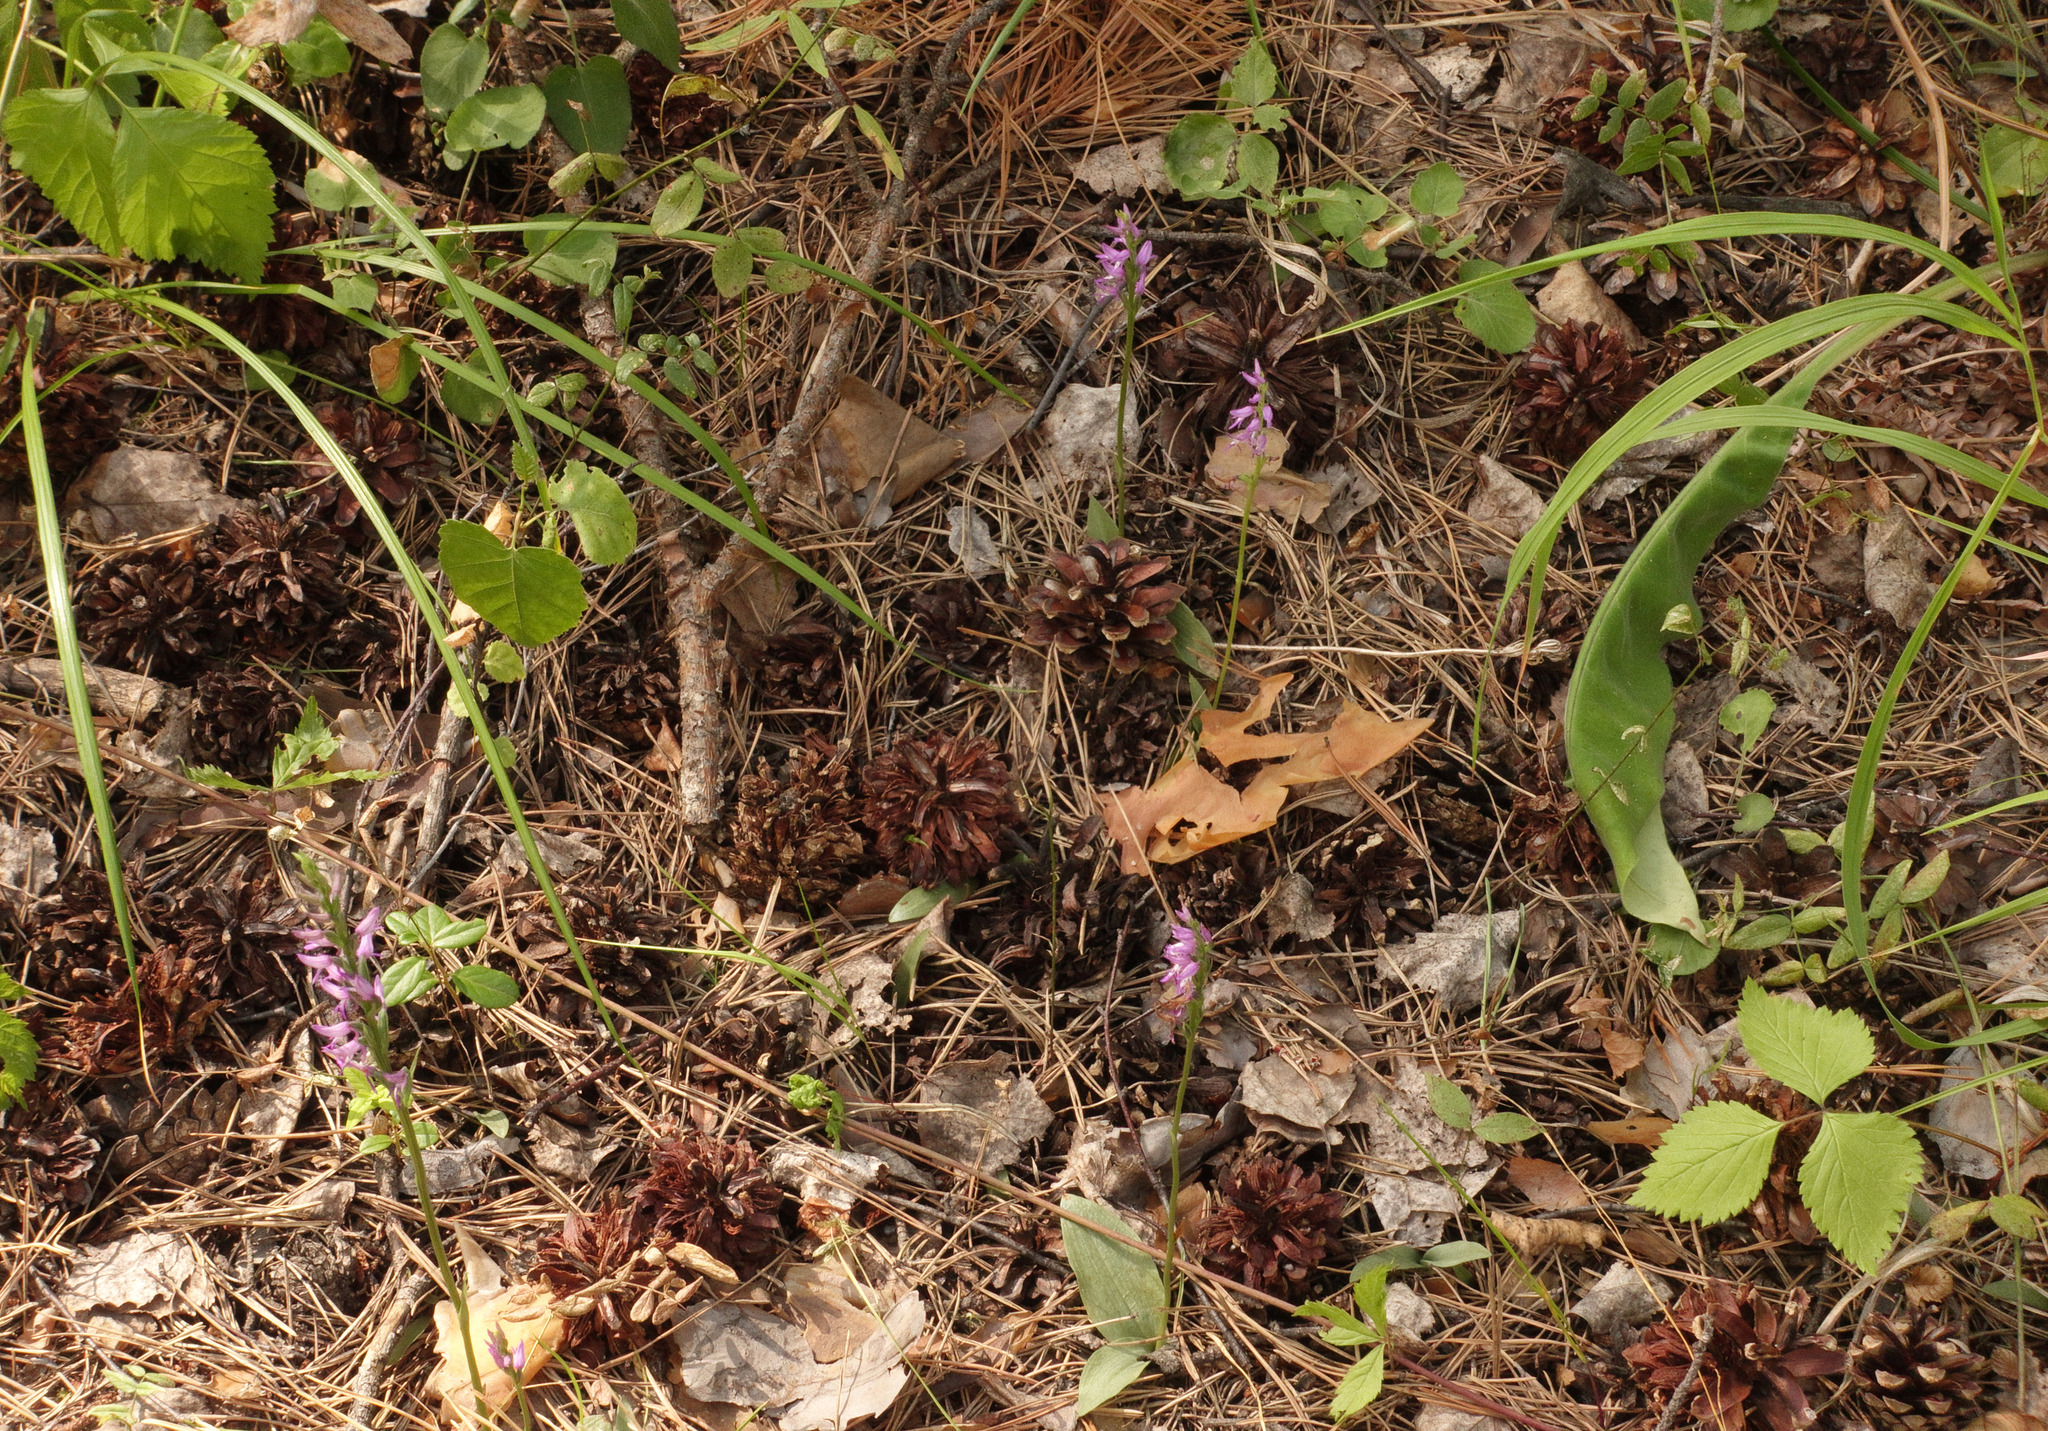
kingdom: Plantae
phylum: Tracheophyta
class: Liliopsida
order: Asparagales
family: Orchidaceae
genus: Hemipilia
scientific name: Hemipilia cucullata
